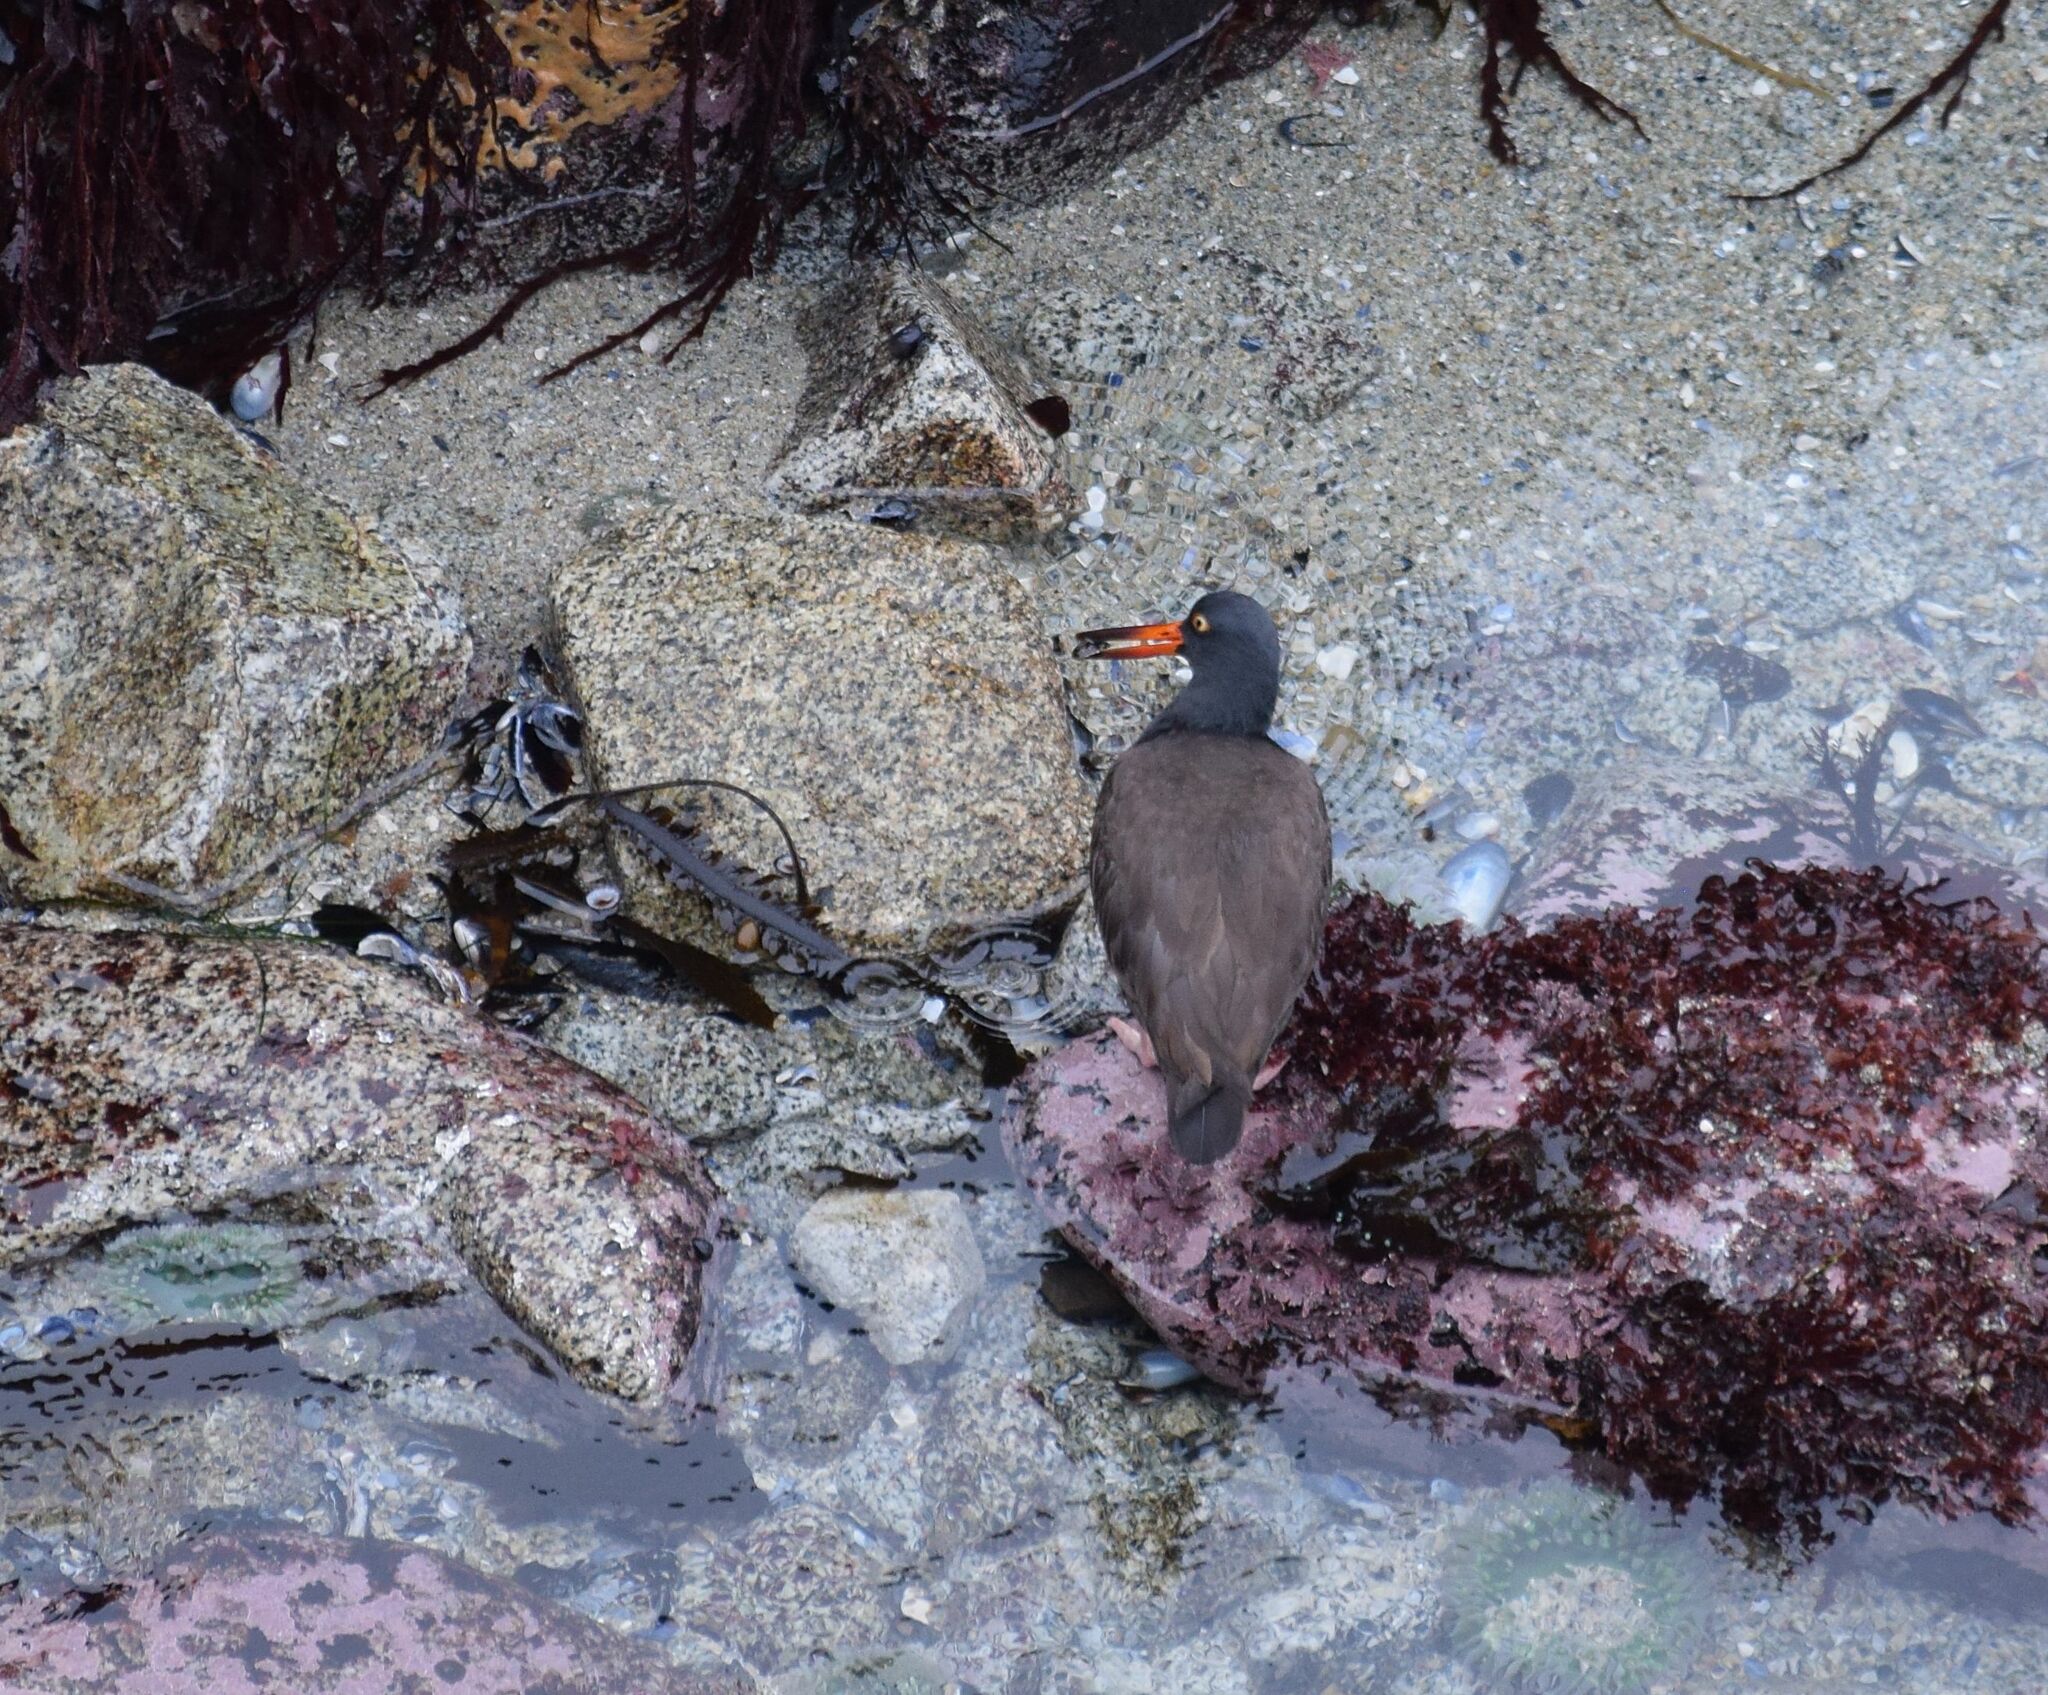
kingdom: Animalia
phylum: Chordata
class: Aves
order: Charadriiformes
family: Haematopodidae
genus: Haematopus
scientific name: Haematopus bachmani
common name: Black oystercatcher
